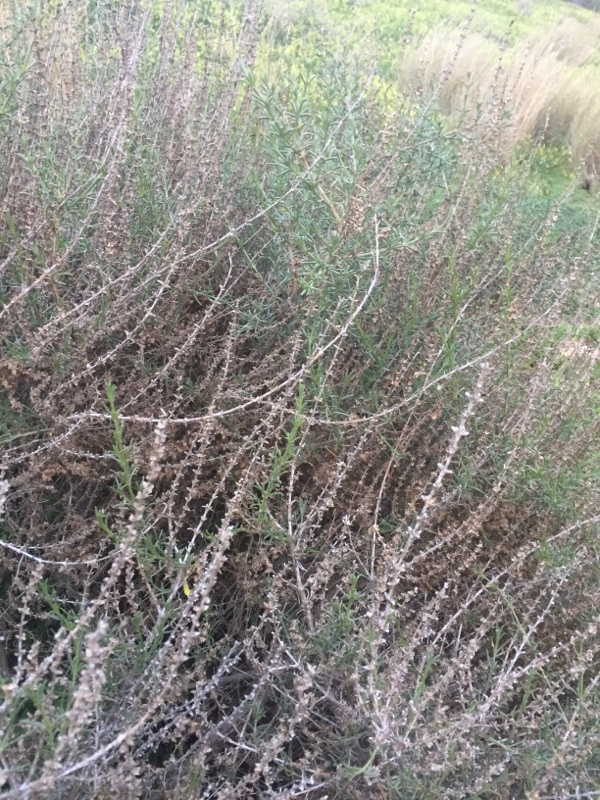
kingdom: Plantae
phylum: Tracheophyta
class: Magnoliopsida
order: Lamiales
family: Lamiaceae
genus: Salvia
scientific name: Salvia rosmarinus
